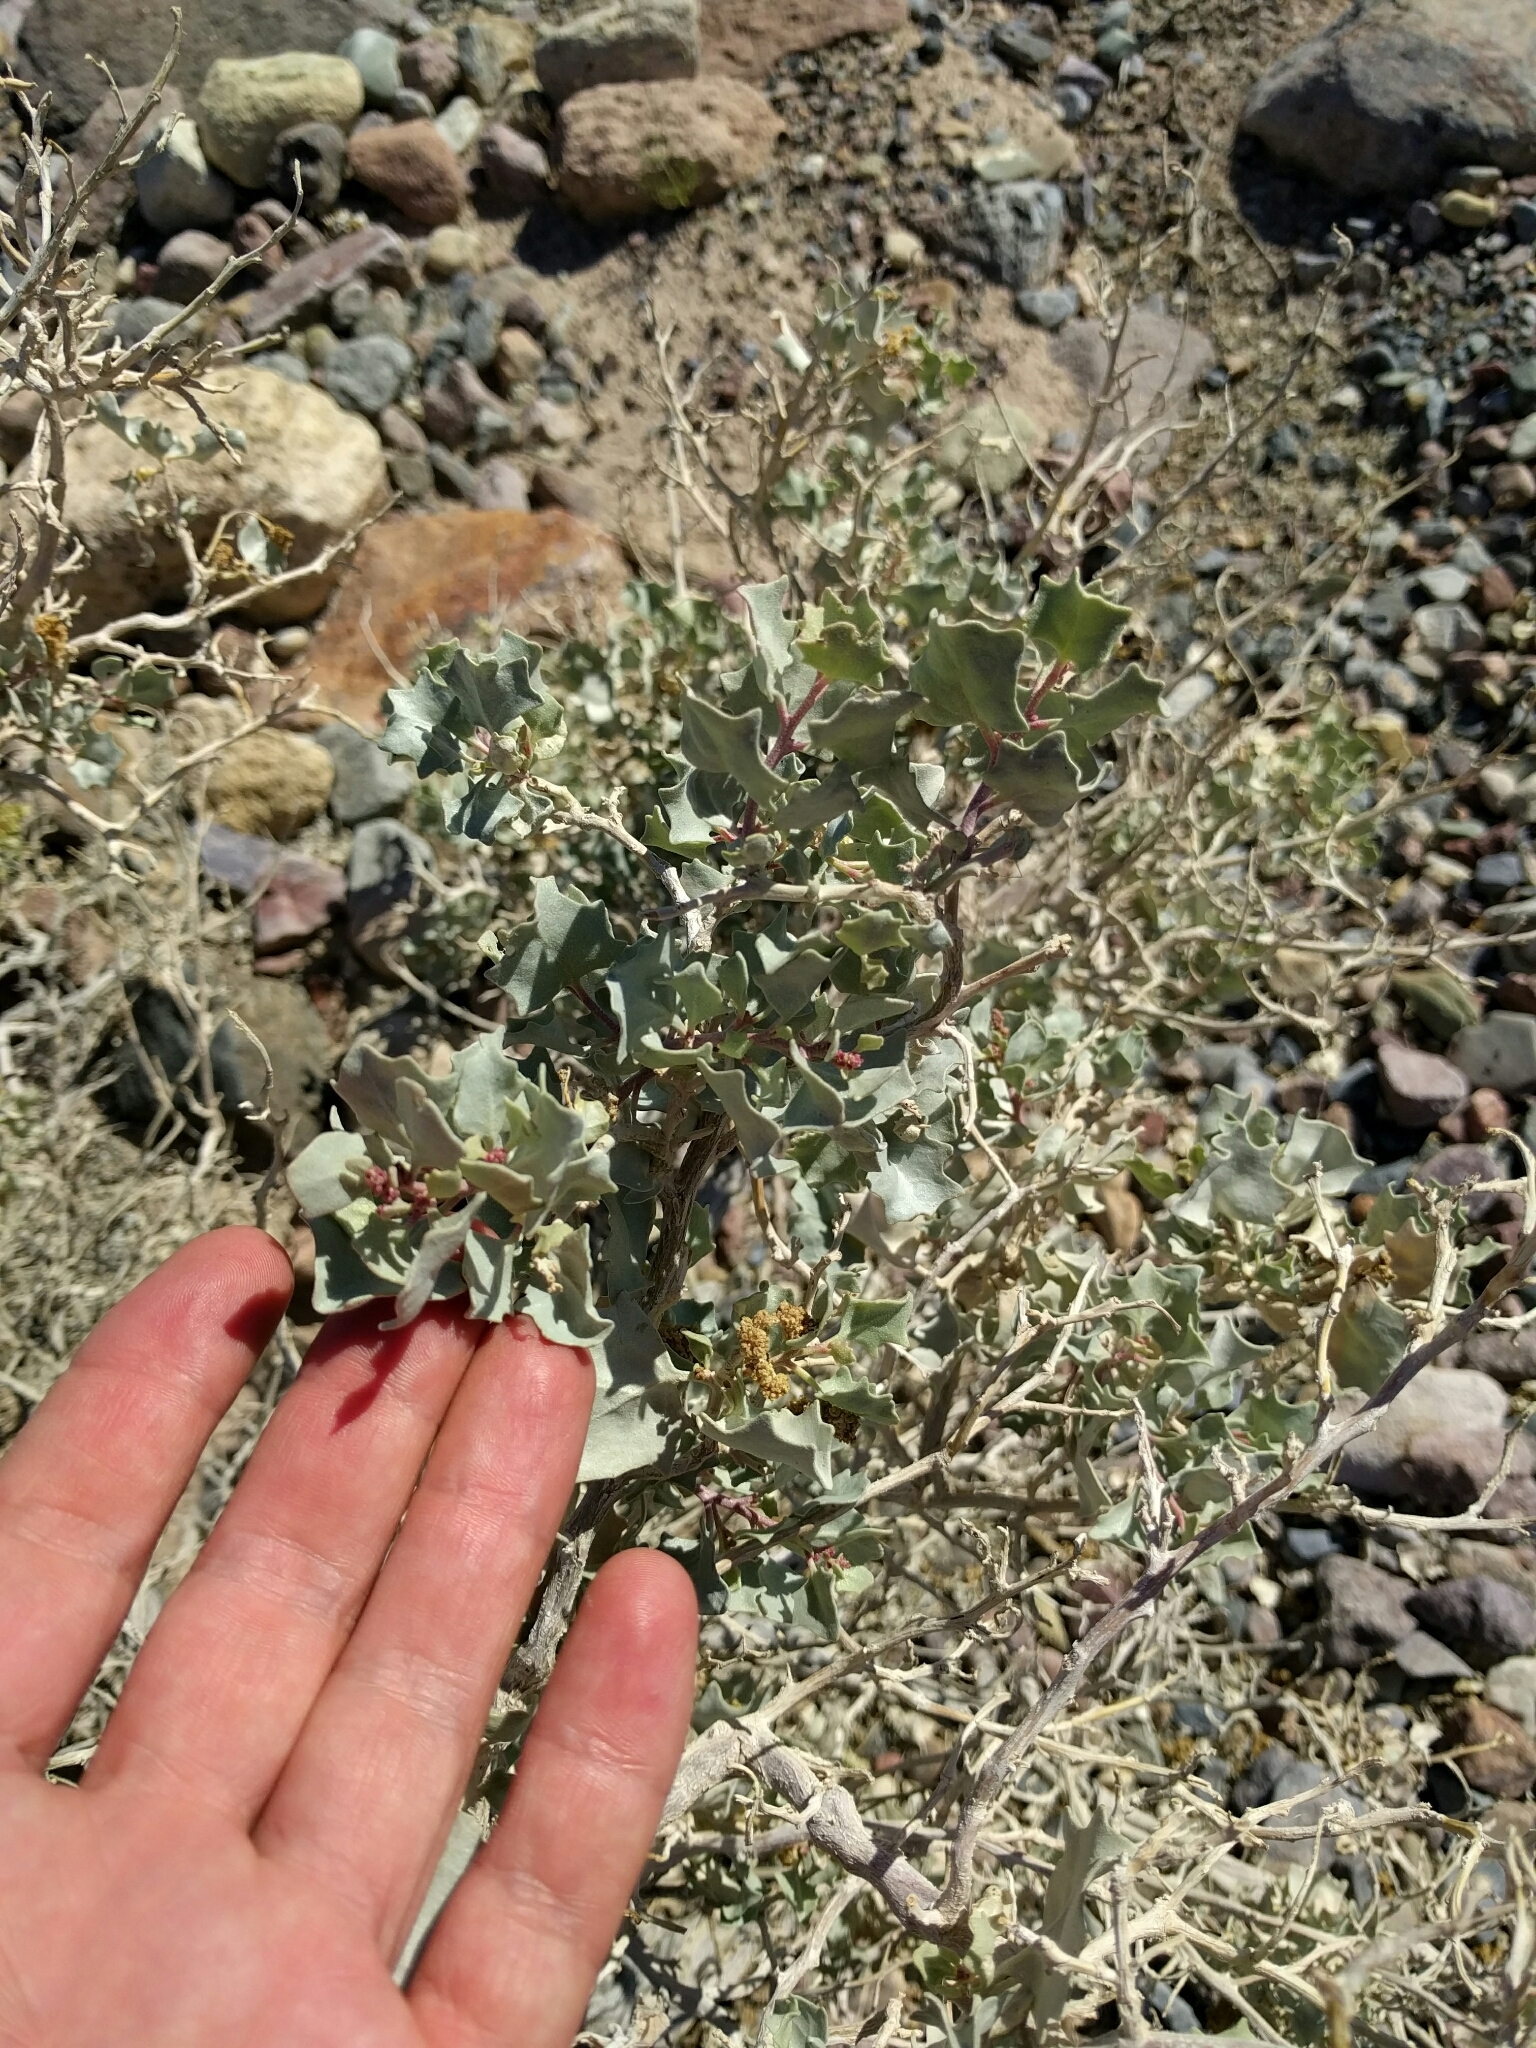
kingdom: Plantae
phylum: Tracheophyta
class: Magnoliopsida
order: Caryophyllales
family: Amaranthaceae
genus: Atriplex
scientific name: Atriplex hymenelytra
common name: Desert-holly
